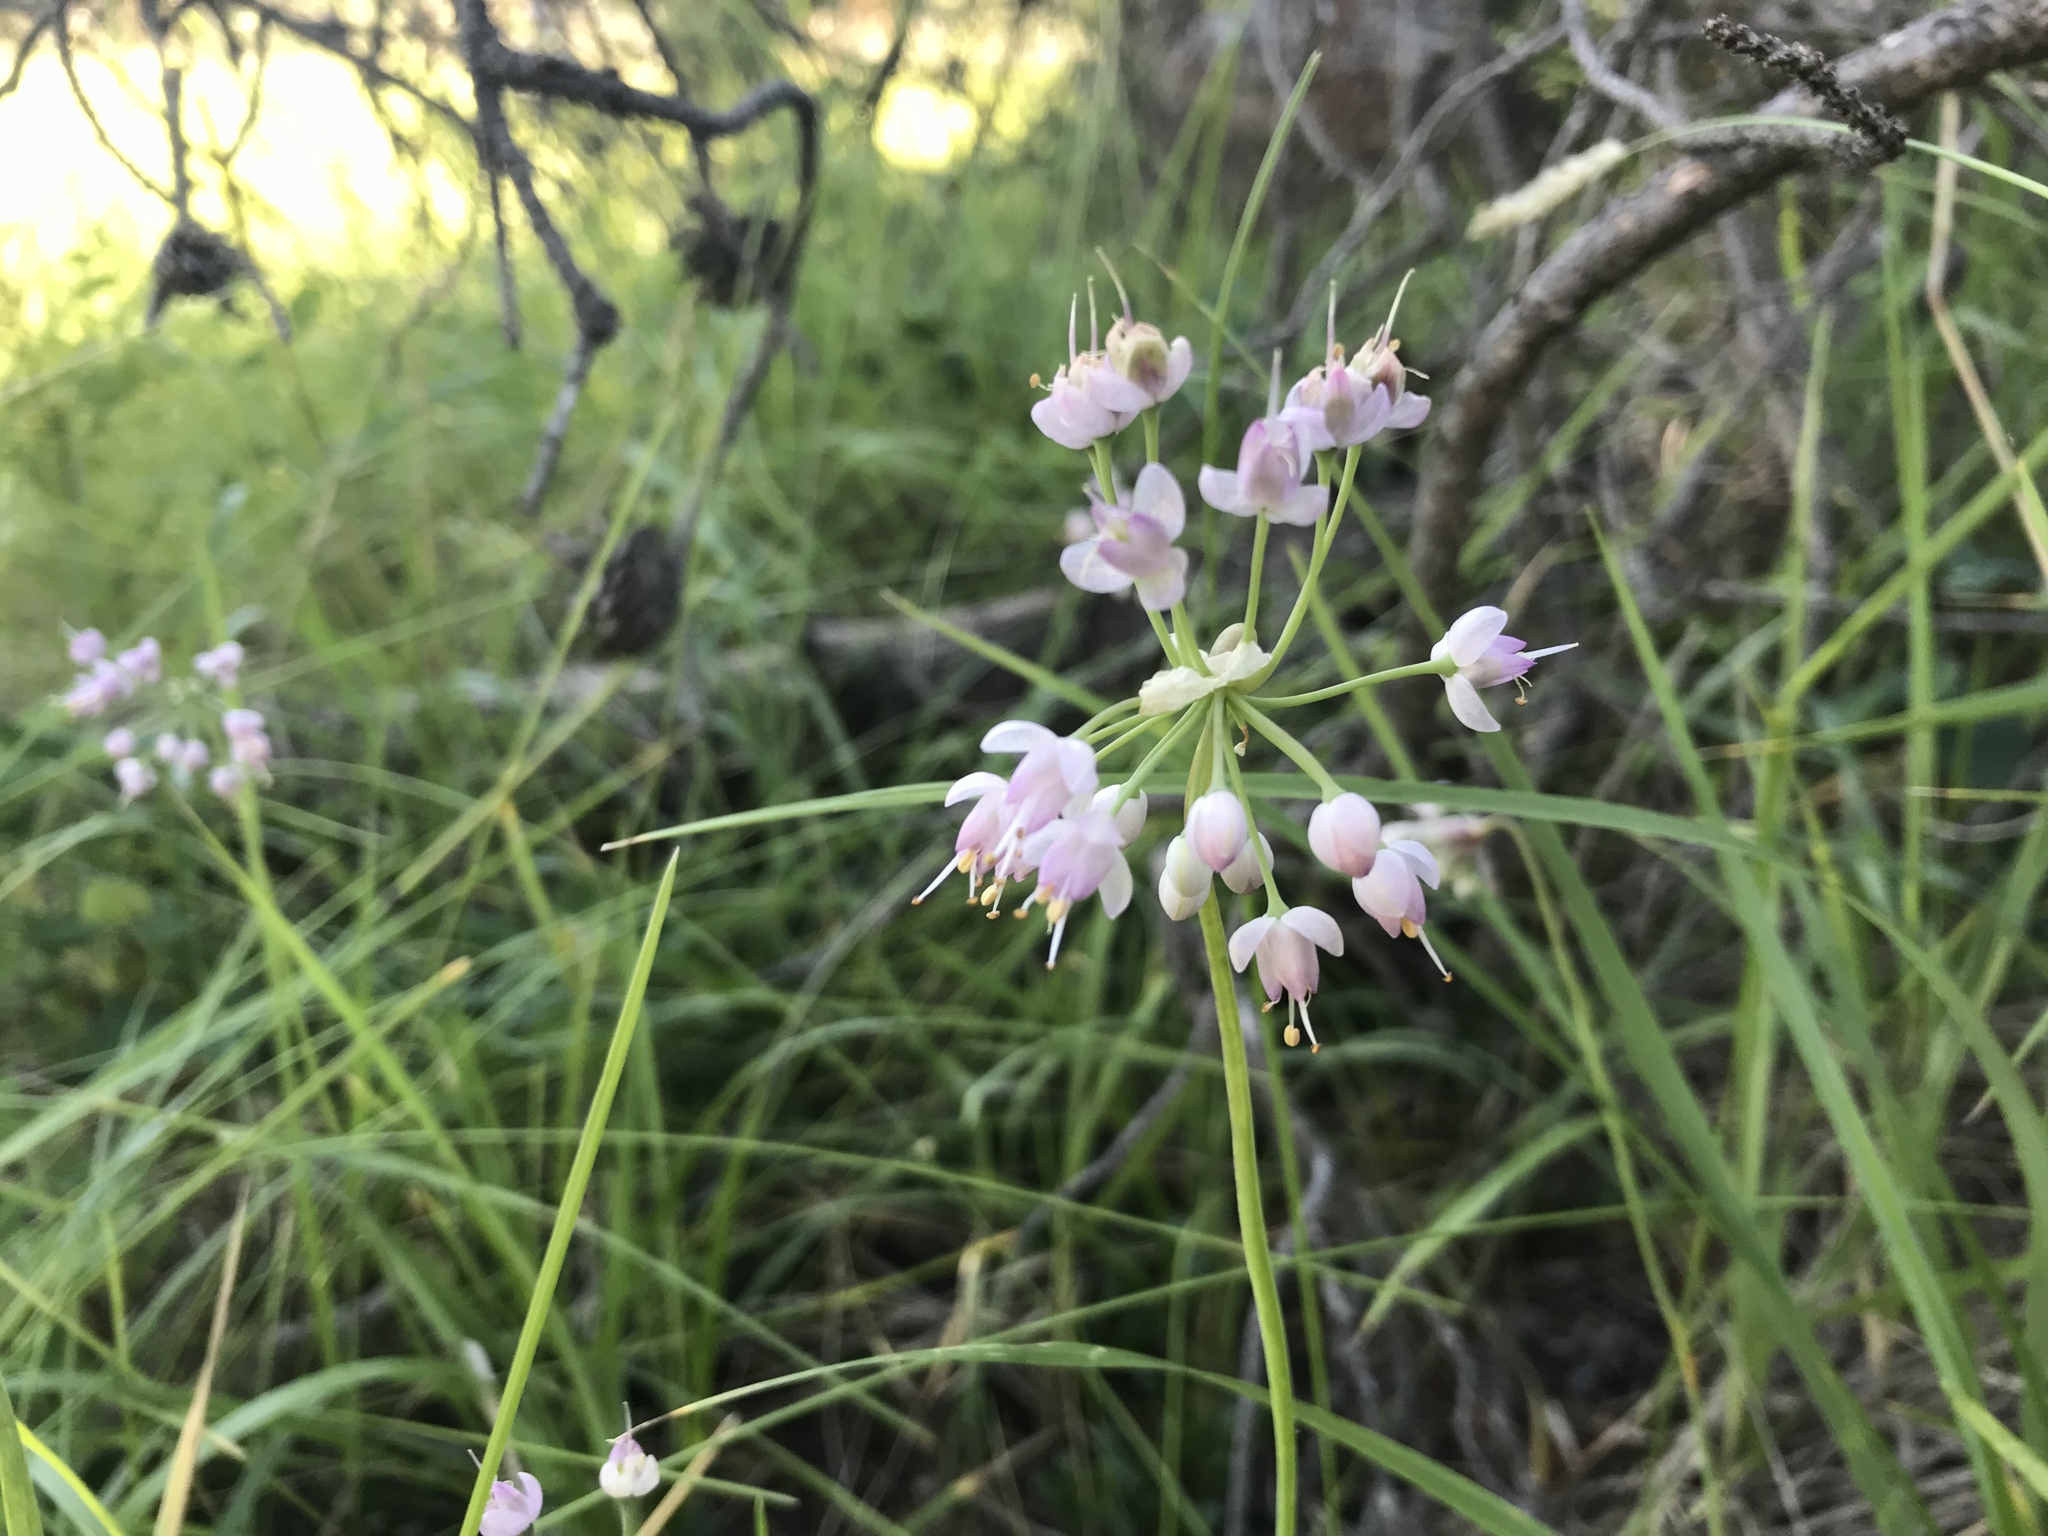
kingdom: Plantae
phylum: Tracheophyta
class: Liliopsida
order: Asparagales
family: Amaryllidaceae
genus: Allium
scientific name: Allium cernuum
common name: Nodding onion
